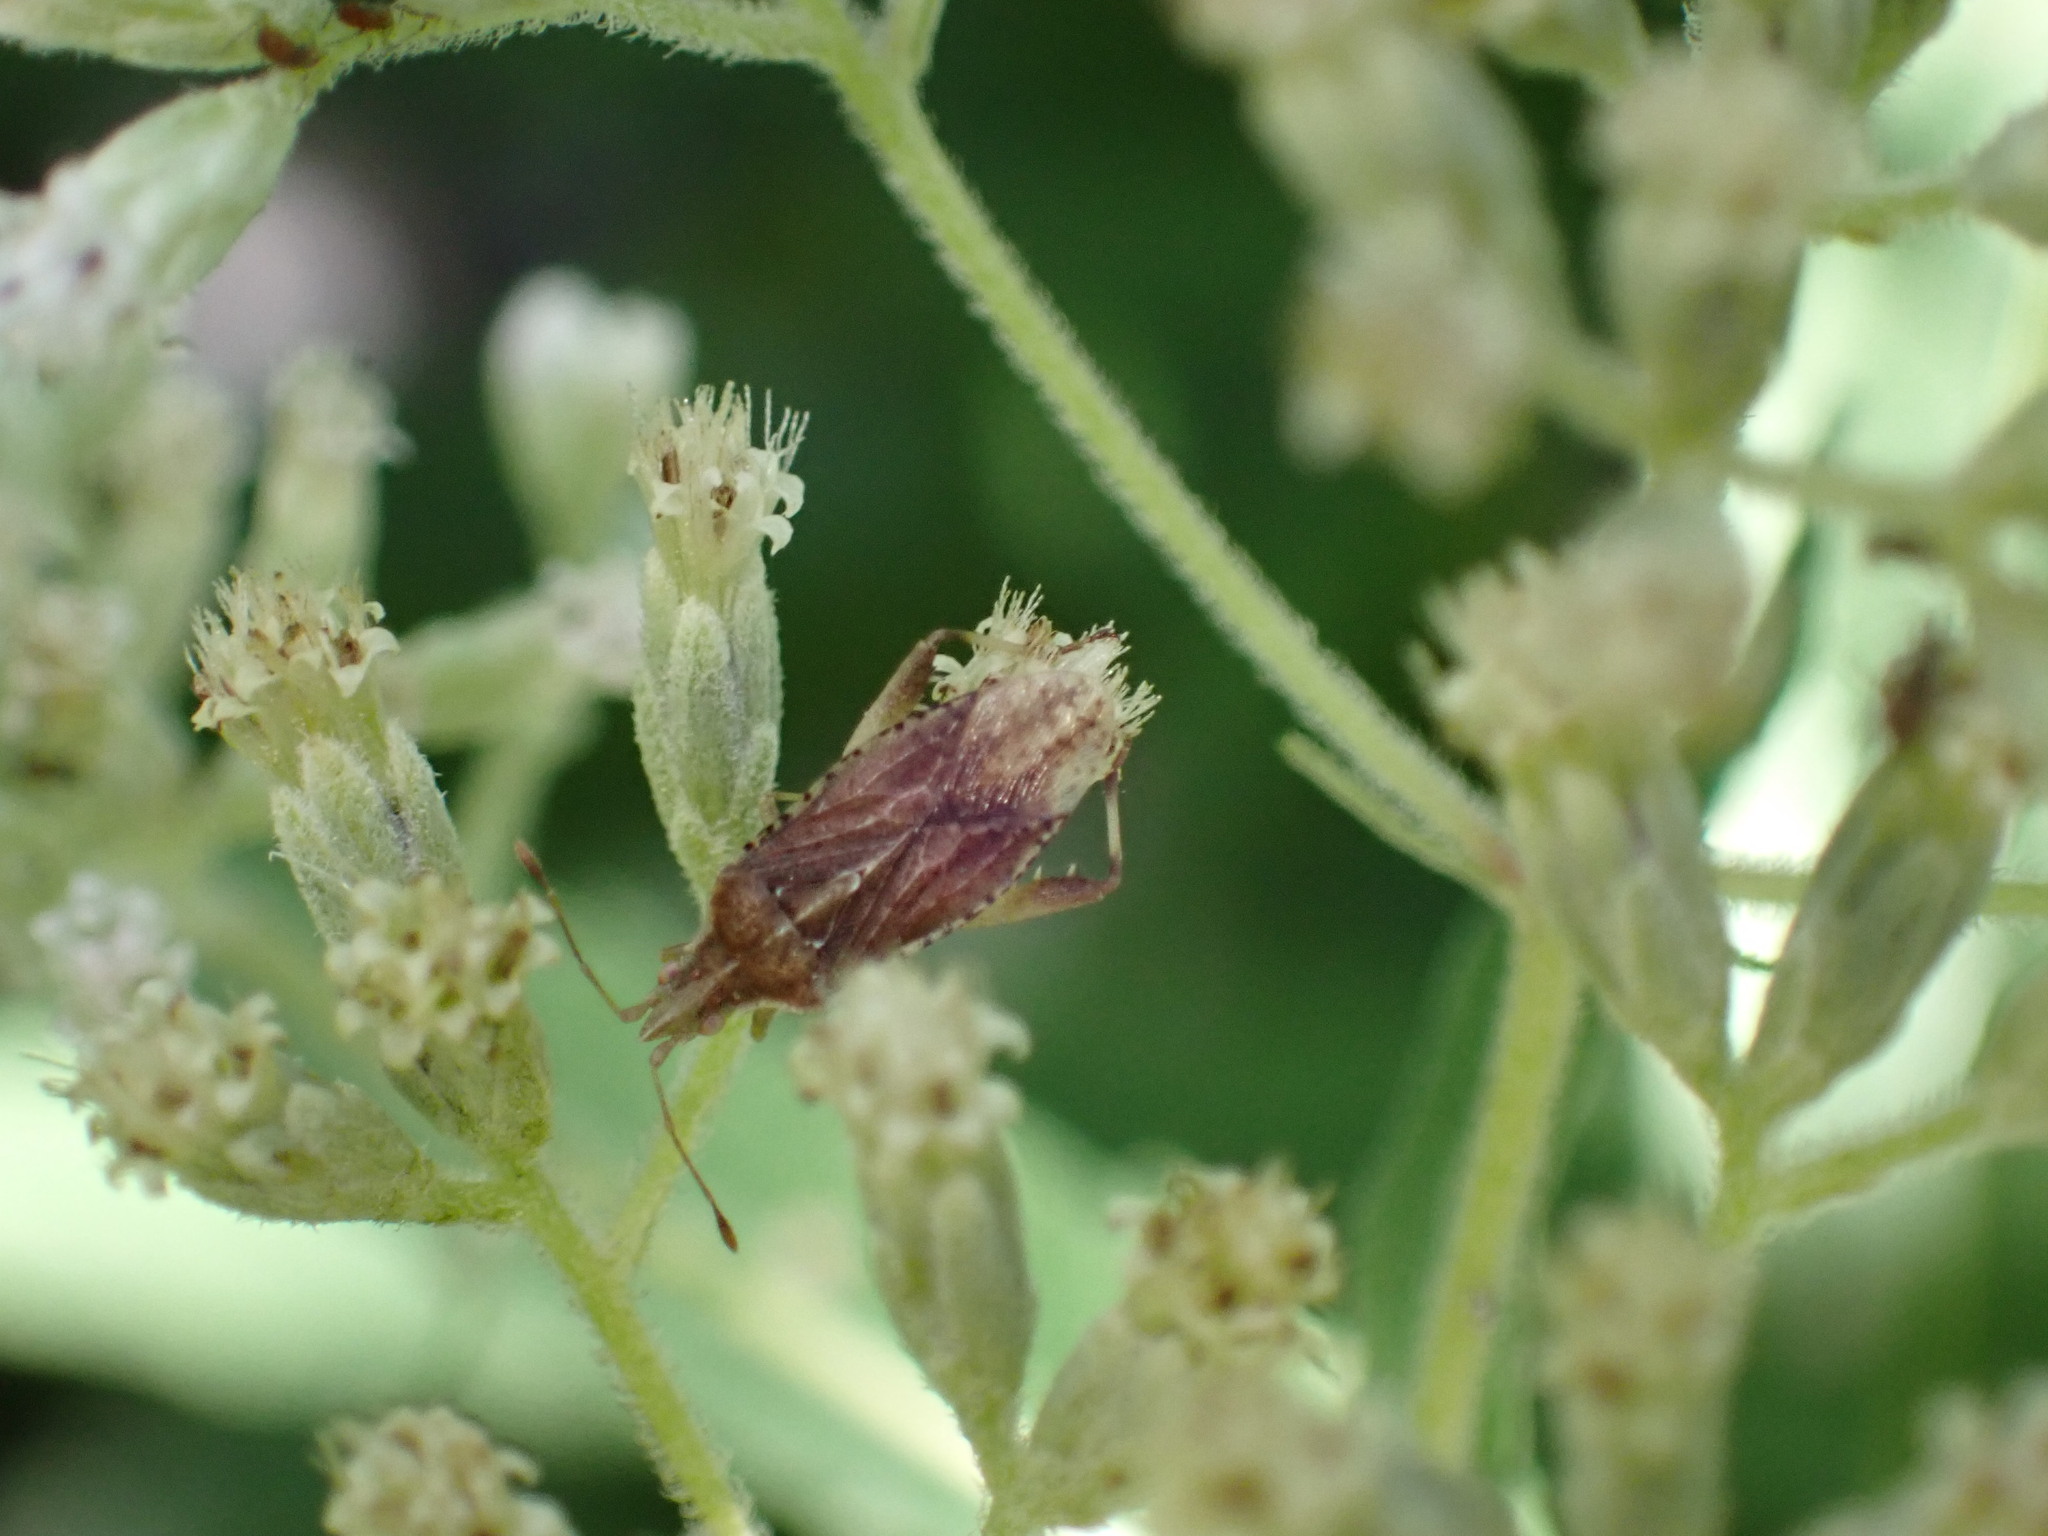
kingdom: Animalia
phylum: Arthropoda
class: Insecta
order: Hemiptera
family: Rhopalidae
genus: Harmostes
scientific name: Harmostes fraterculus
